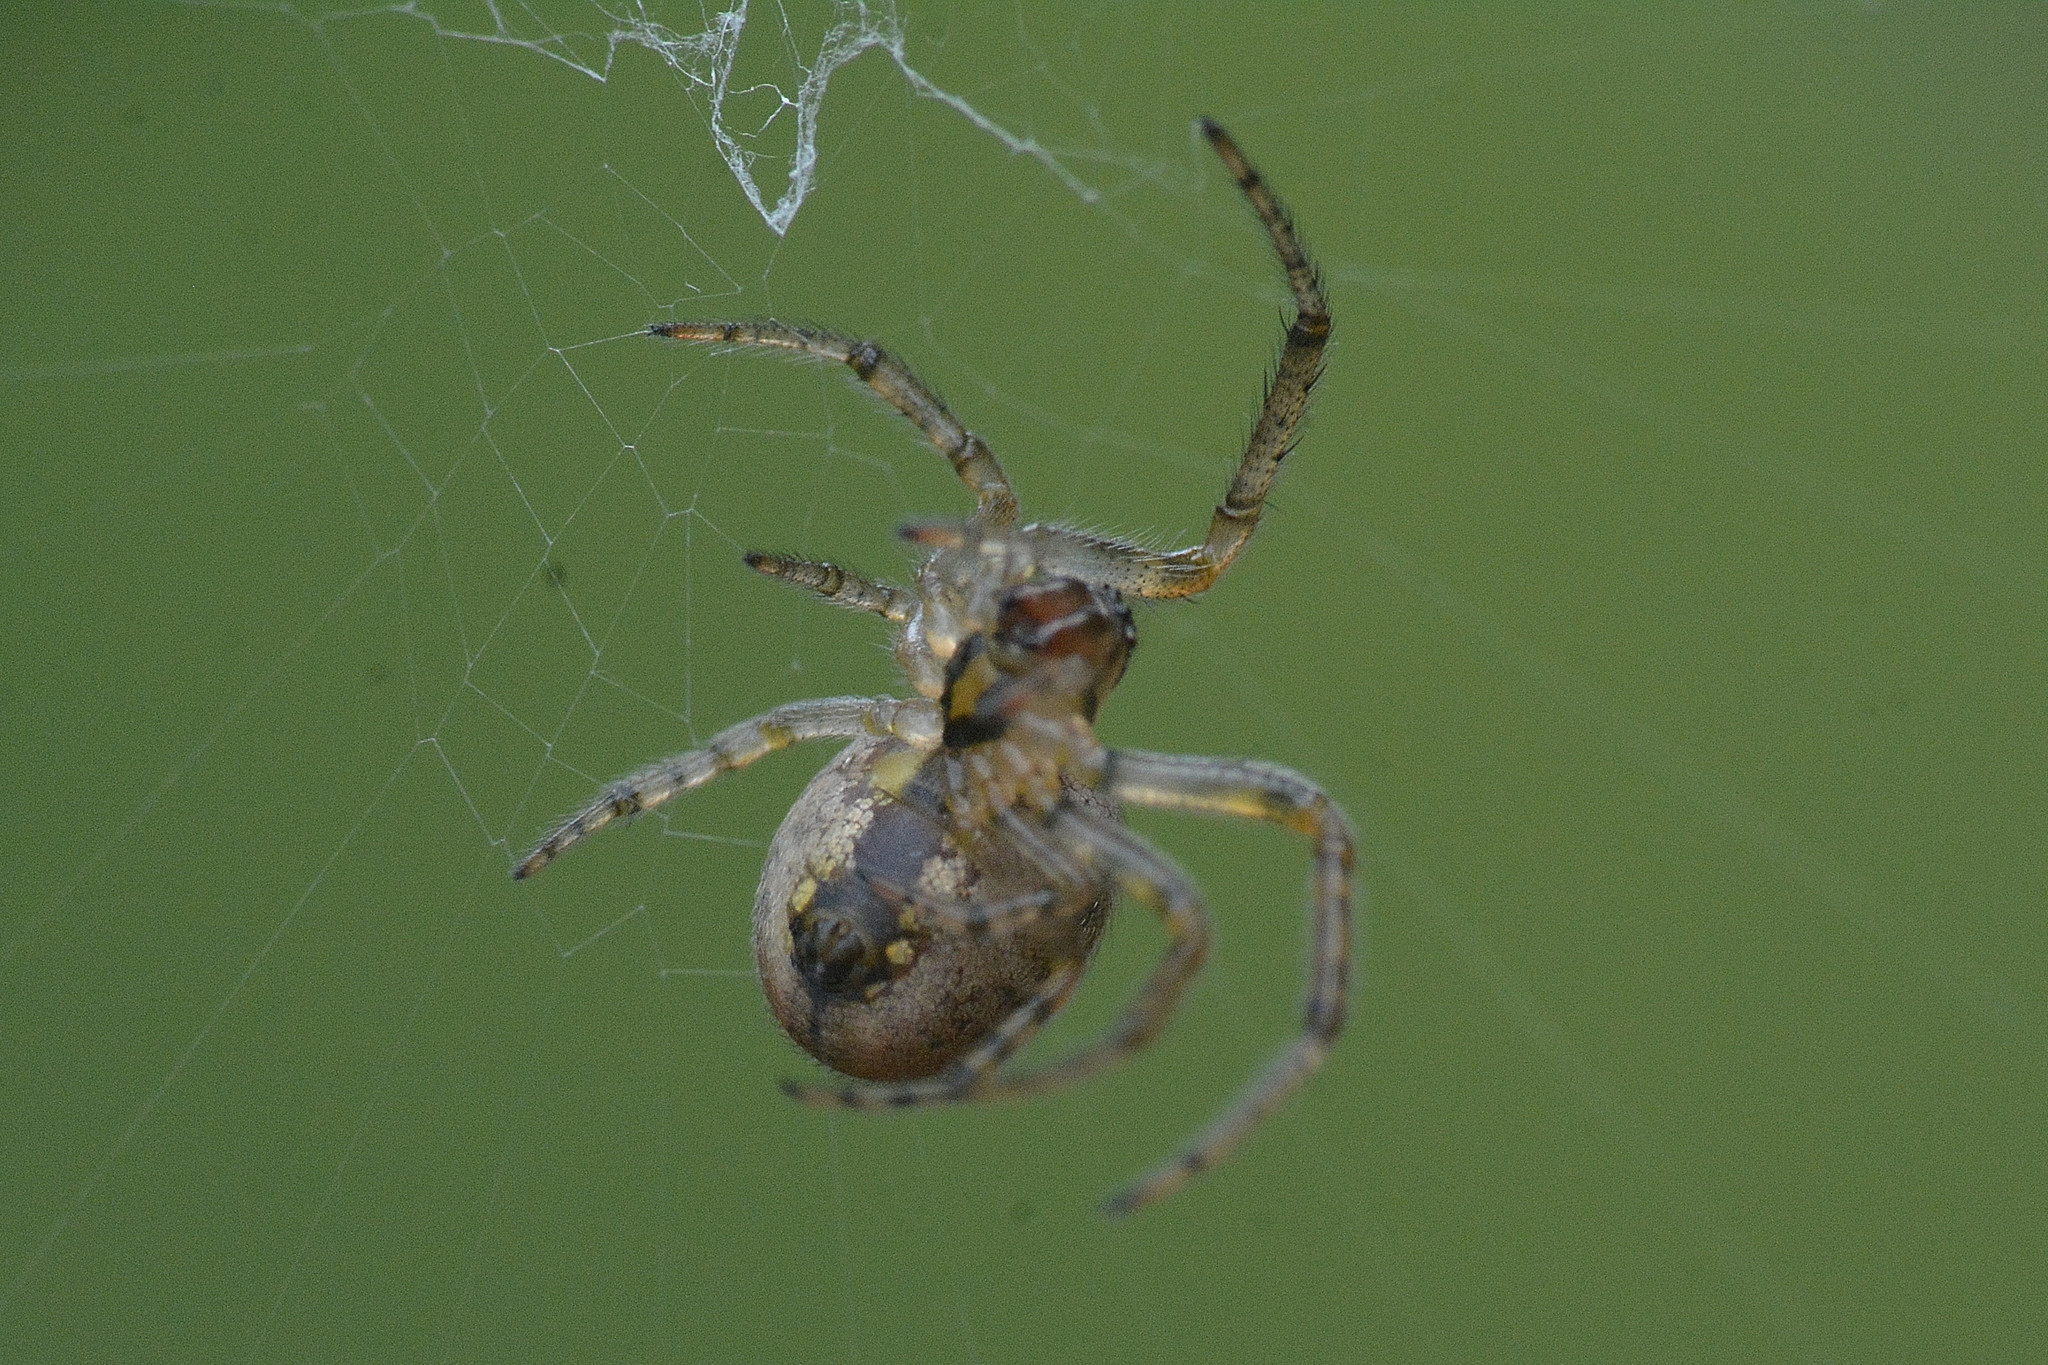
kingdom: Animalia
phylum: Arthropoda
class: Arachnida
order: Araneae
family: Araneidae
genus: Zygiella
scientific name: Zygiella x-notata
